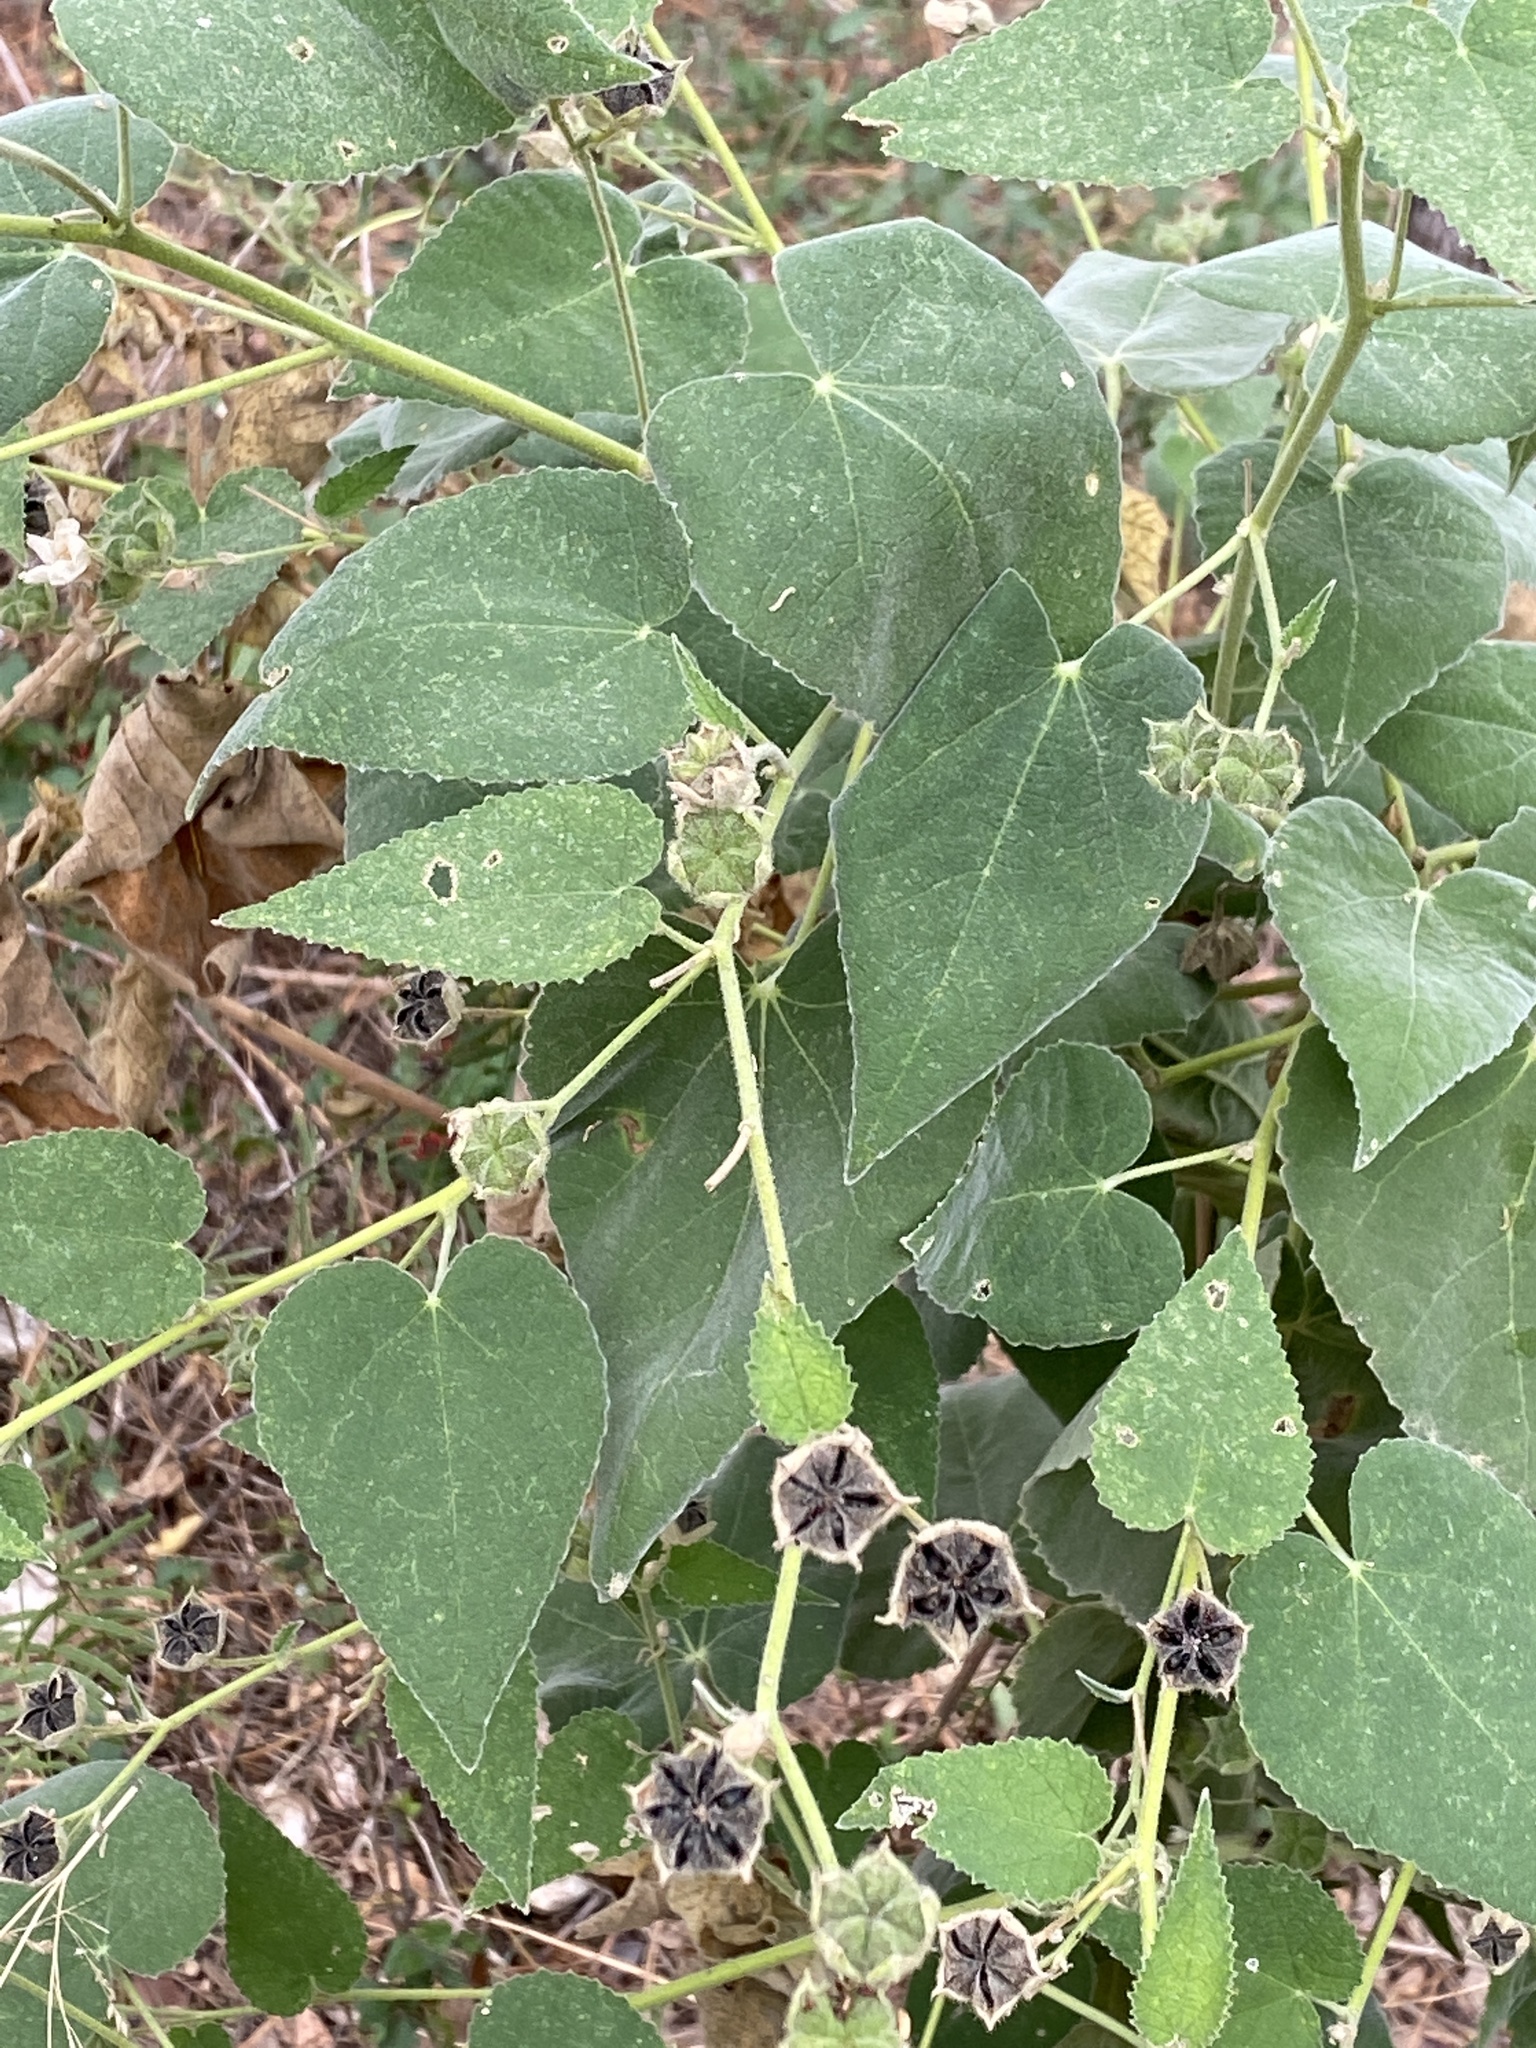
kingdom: Plantae
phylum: Tracheophyta
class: Magnoliopsida
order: Malvales
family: Malvaceae
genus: Allowissadula
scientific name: Allowissadula holosericea
